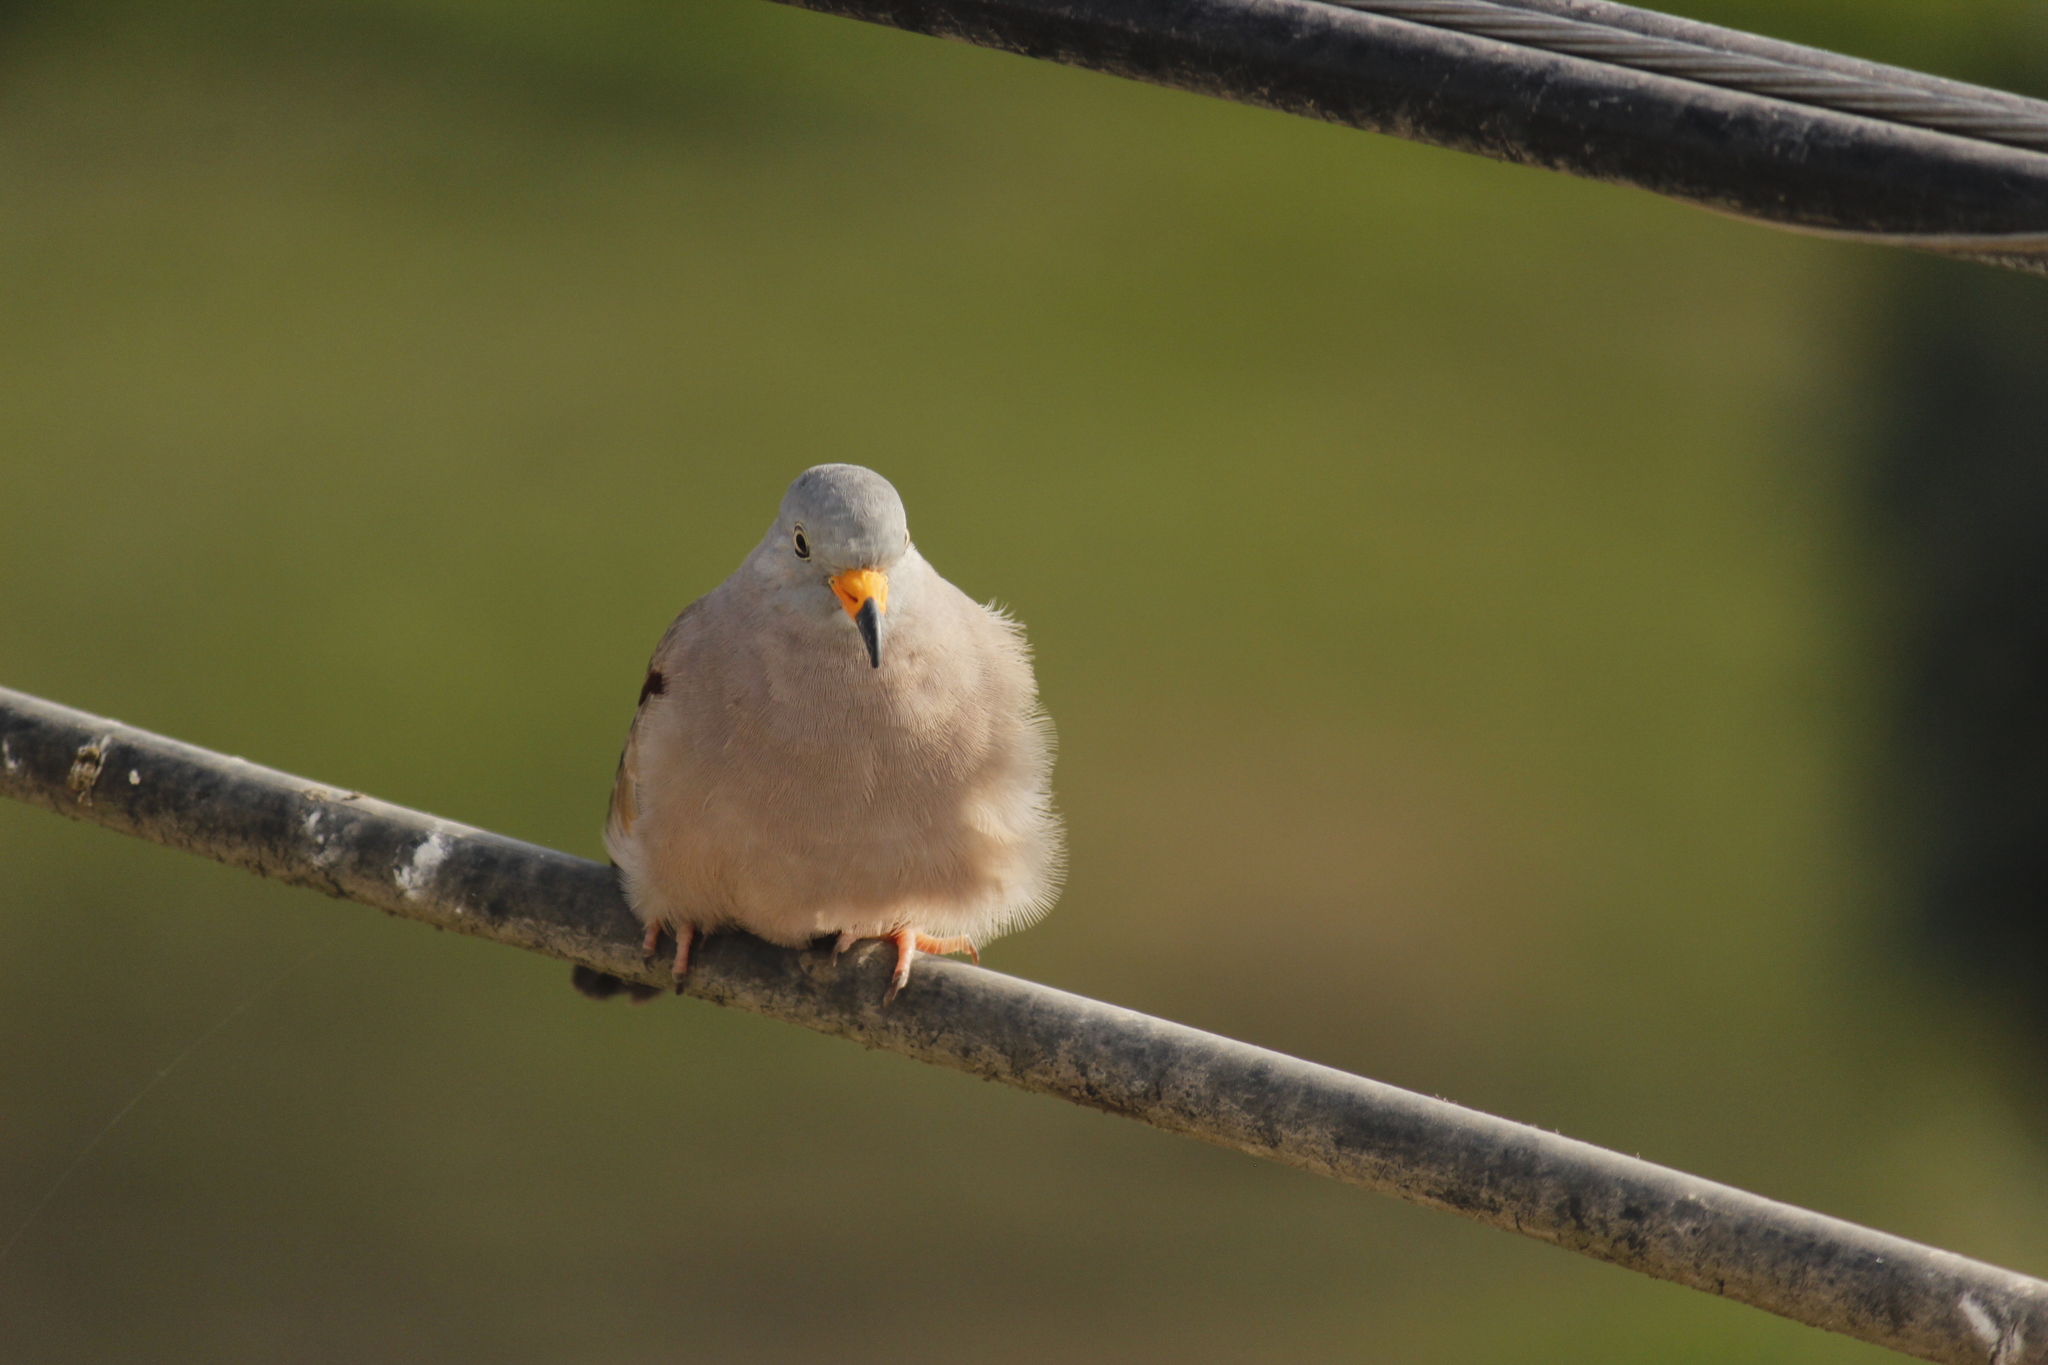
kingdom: Animalia
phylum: Chordata
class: Aves
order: Columbiformes
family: Columbidae
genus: Columbina
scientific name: Columbina cruziana
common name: Croaking ground dove
